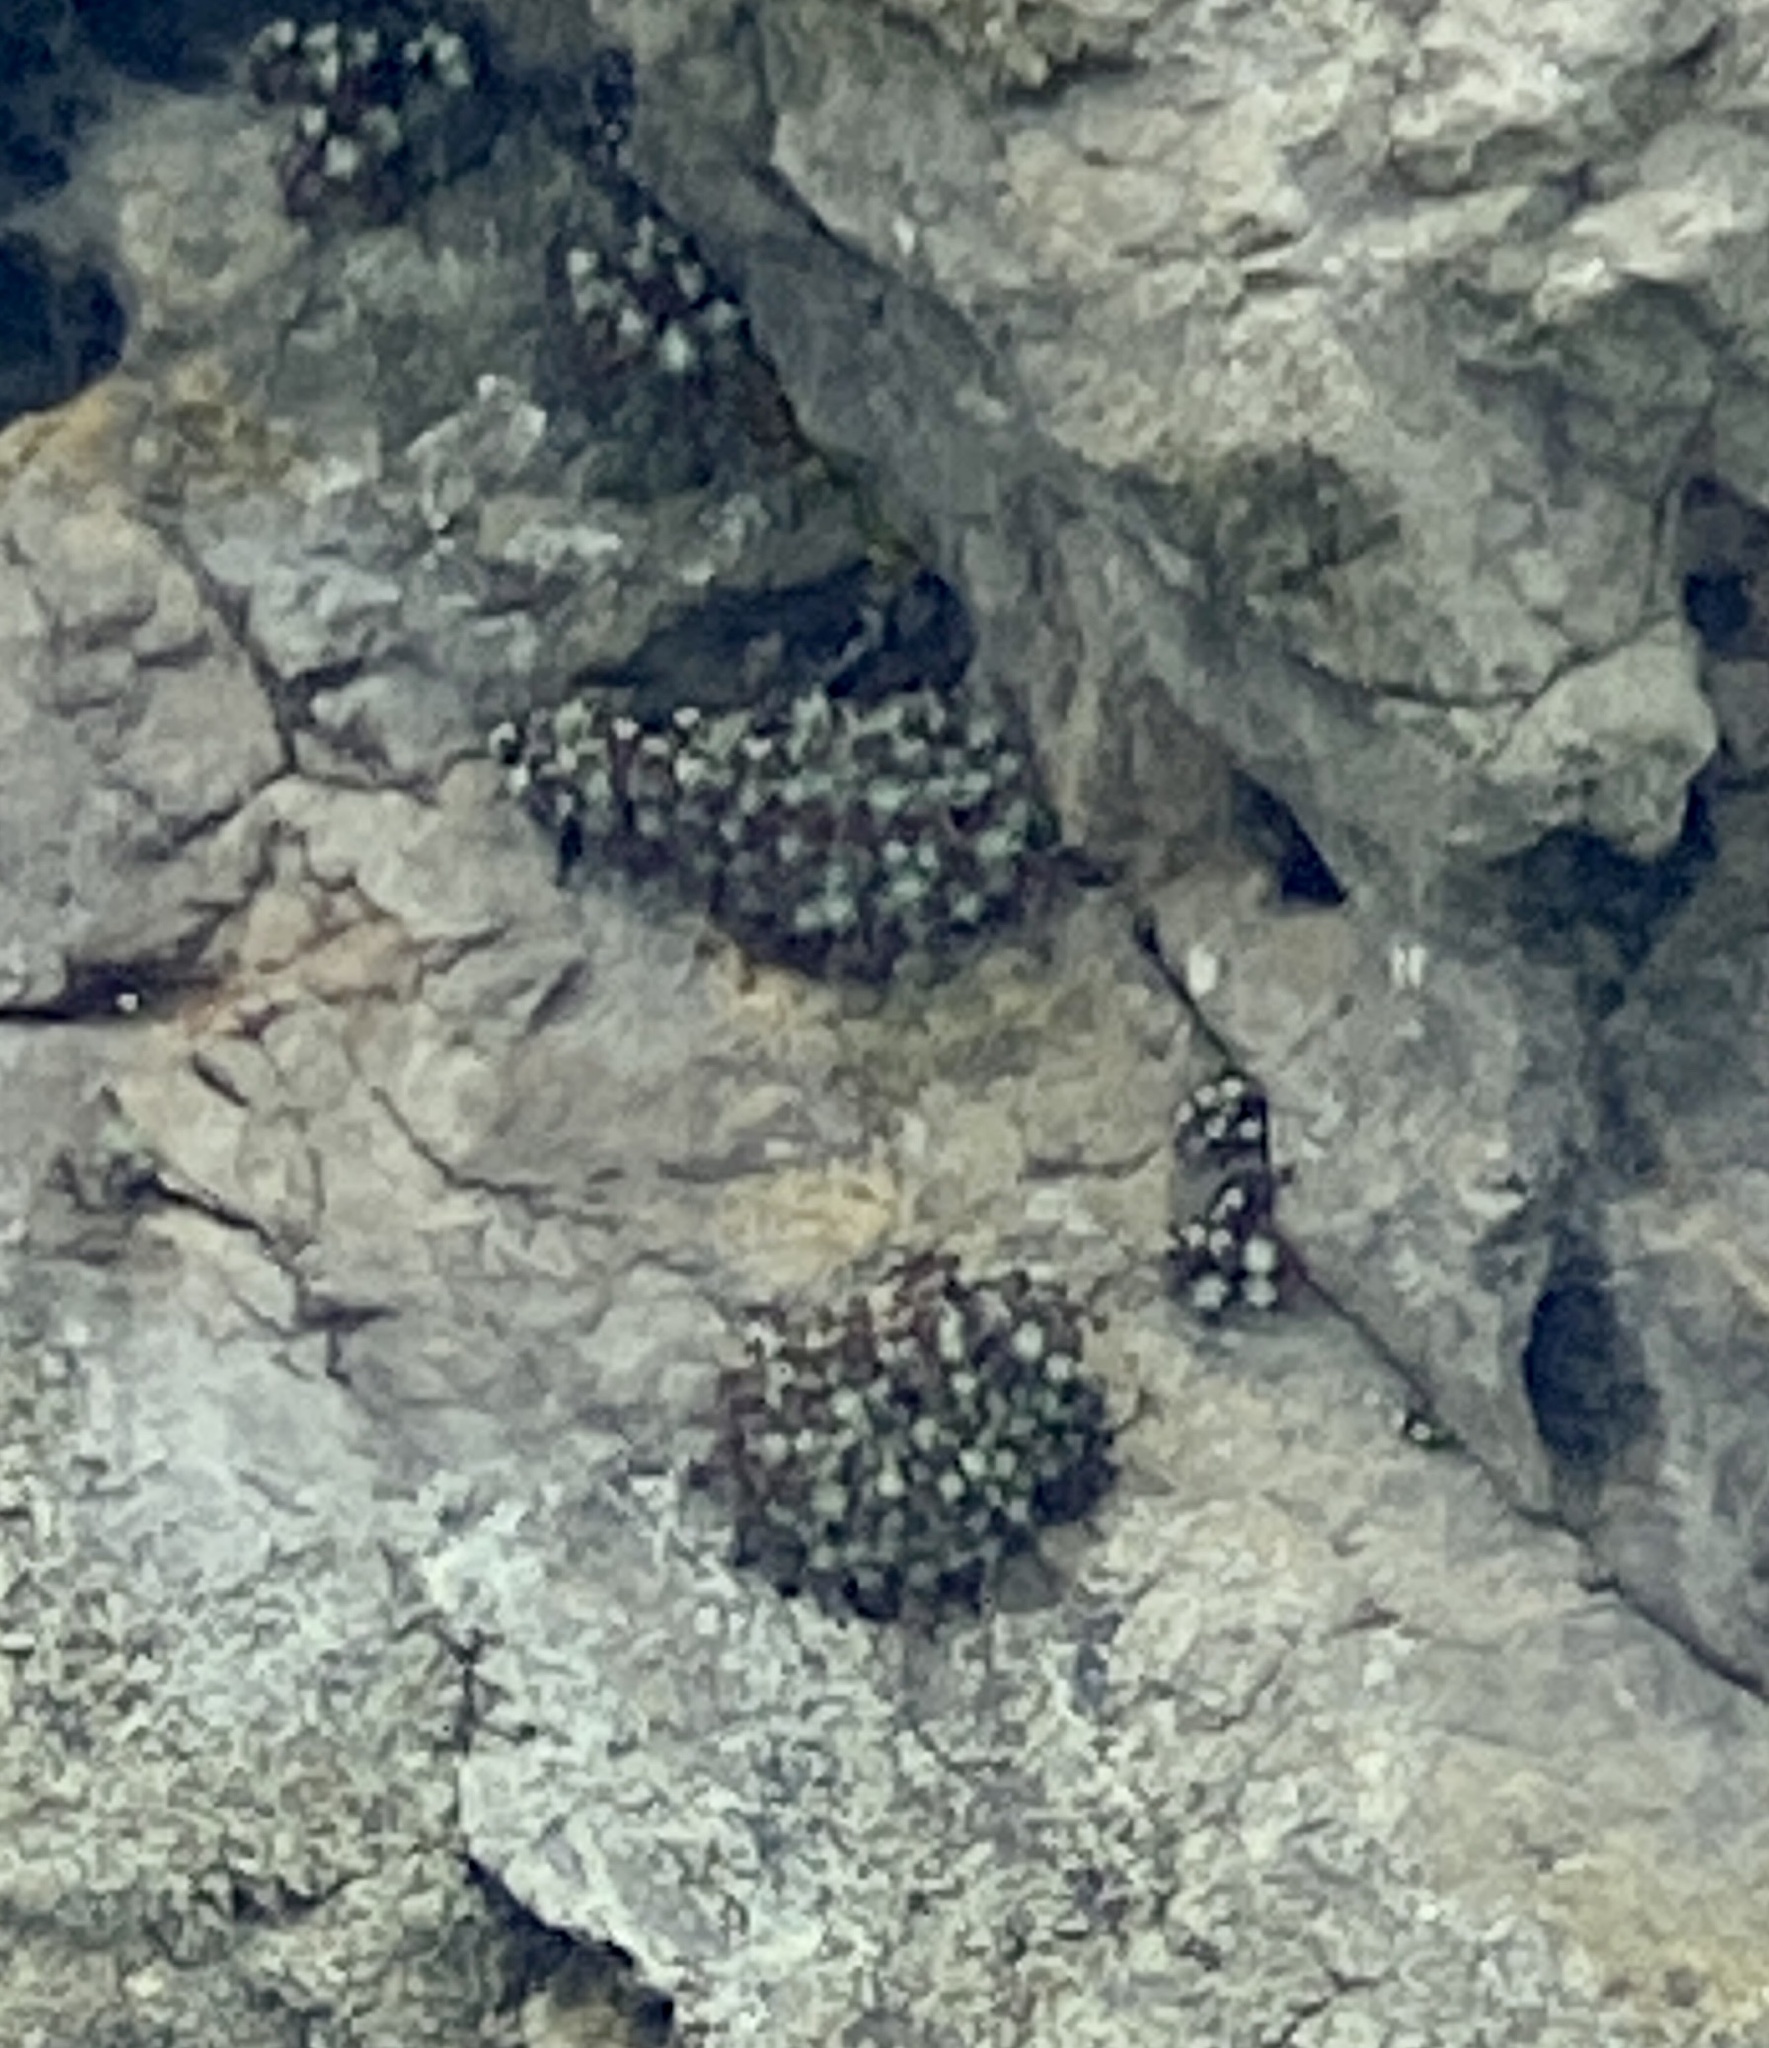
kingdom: Plantae
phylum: Tracheophyta
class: Magnoliopsida
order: Saxifragales
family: Crassulaceae
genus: Dudleya
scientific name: Dudleya farinosa
